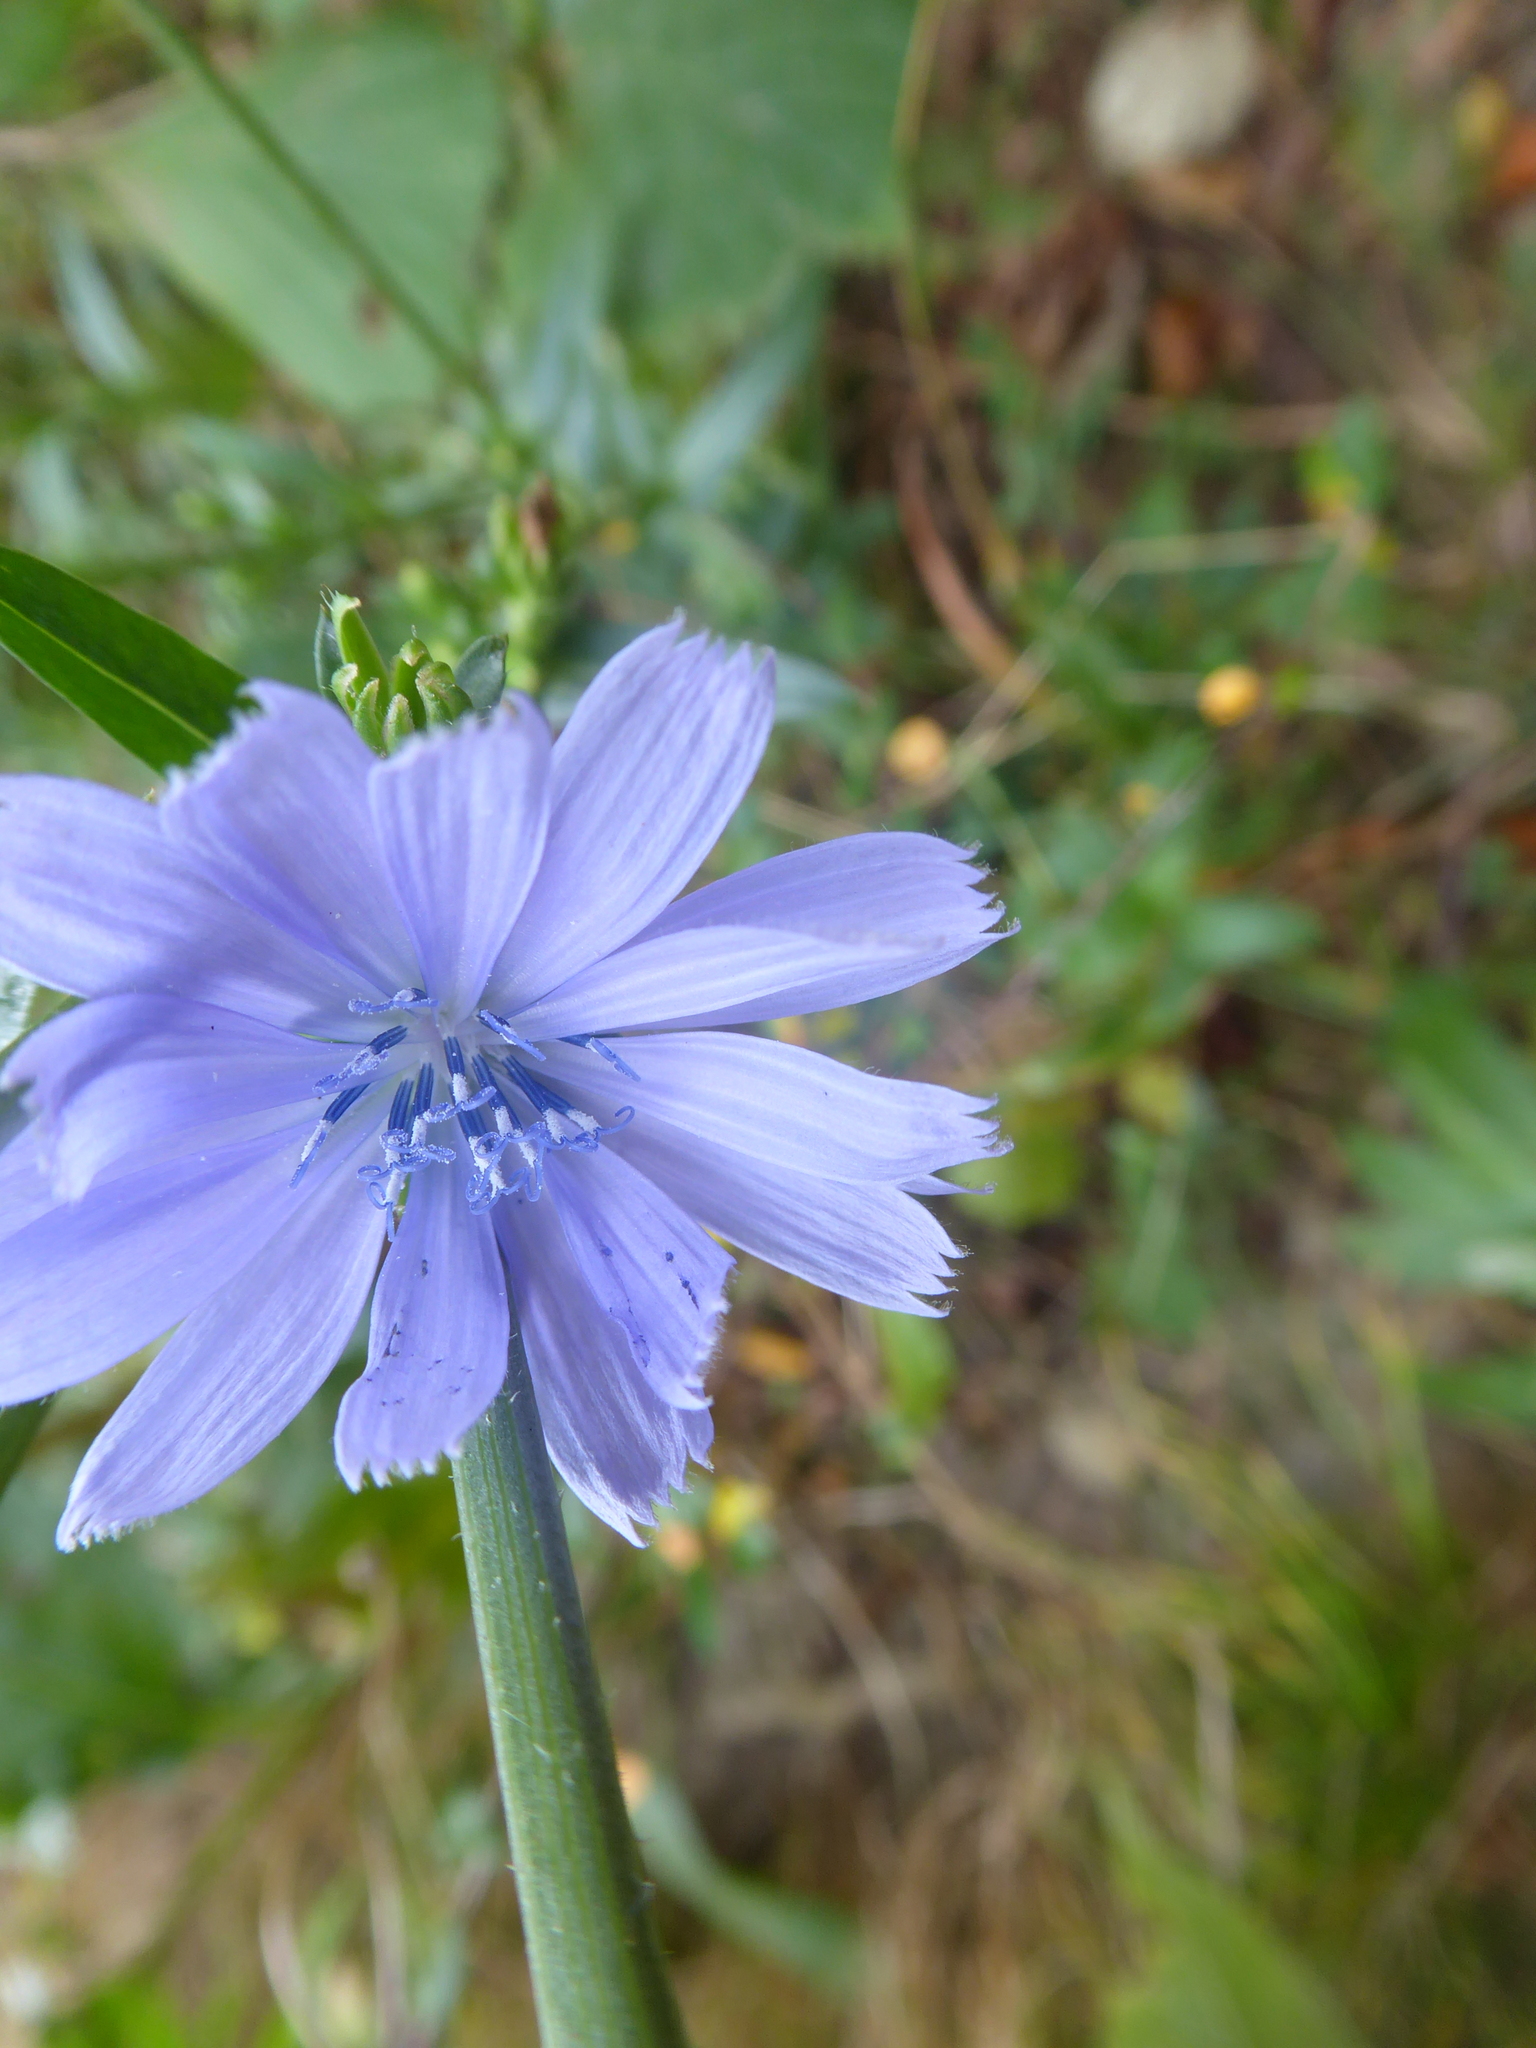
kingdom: Plantae
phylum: Tracheophyta
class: Magnoliopsida
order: Asterales
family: Asteraceae
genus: Cichorium
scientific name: Cichorium intybus
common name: Chicory
